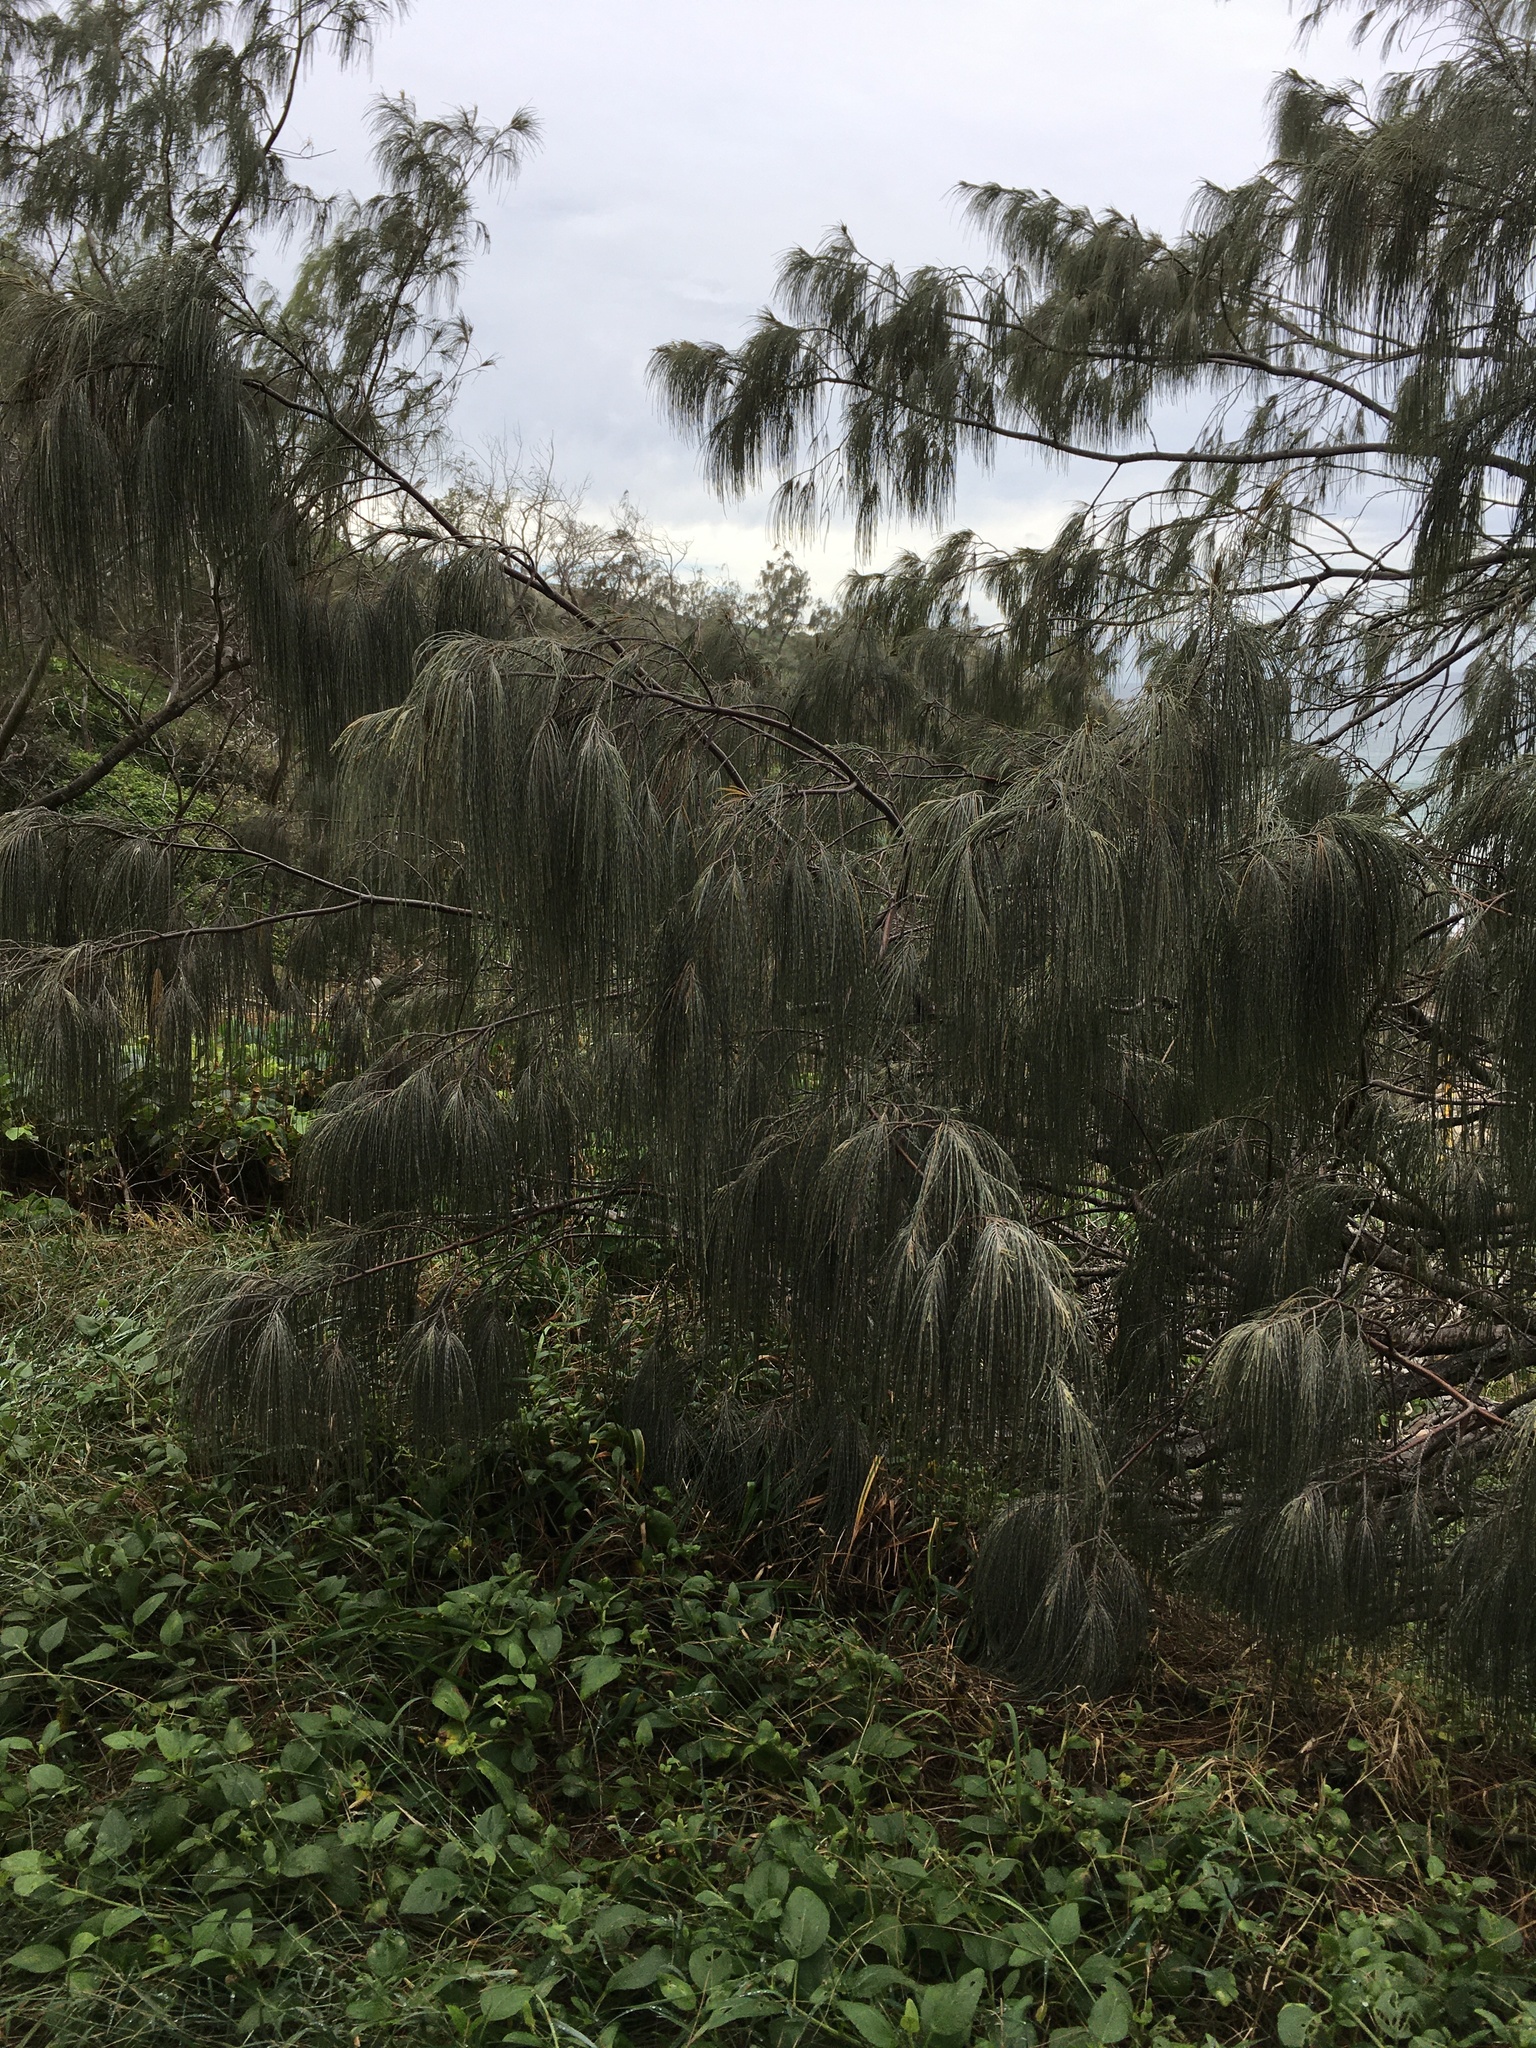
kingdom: Plantae
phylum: Tracheophyta
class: Magnoliopsida
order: Fagales
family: Casuarinaceae
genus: Casuarina
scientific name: Casuarina equisetifolia
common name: Beach sheoak
